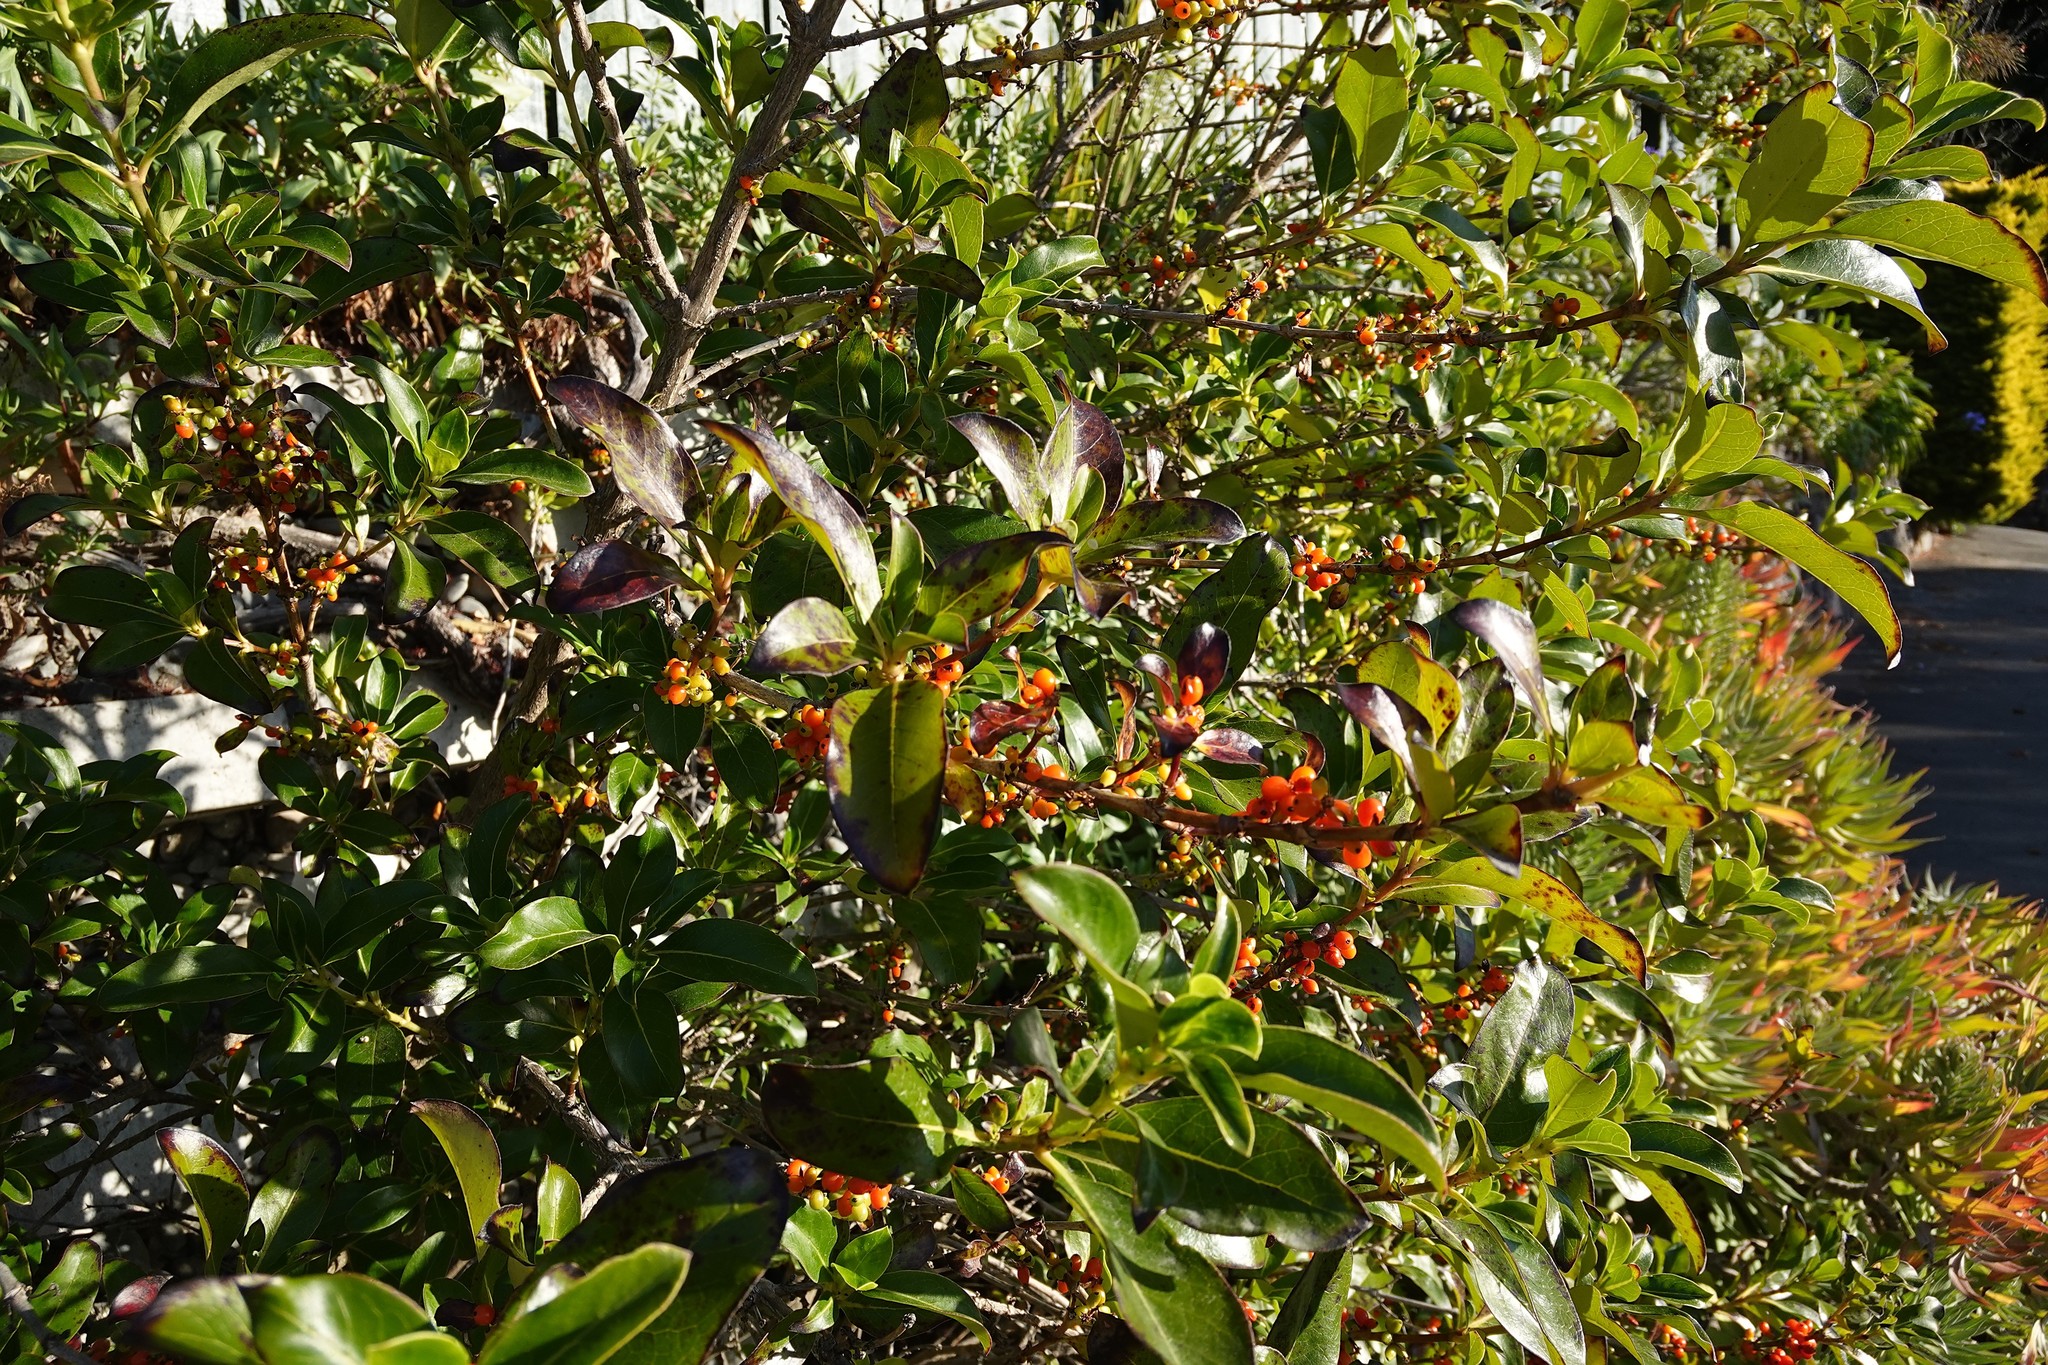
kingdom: Plantae
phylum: Tracheophyta
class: Magnoliopsida
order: Gentianales
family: Rubiaceae
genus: Coprosma
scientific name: Coprosma robusta
